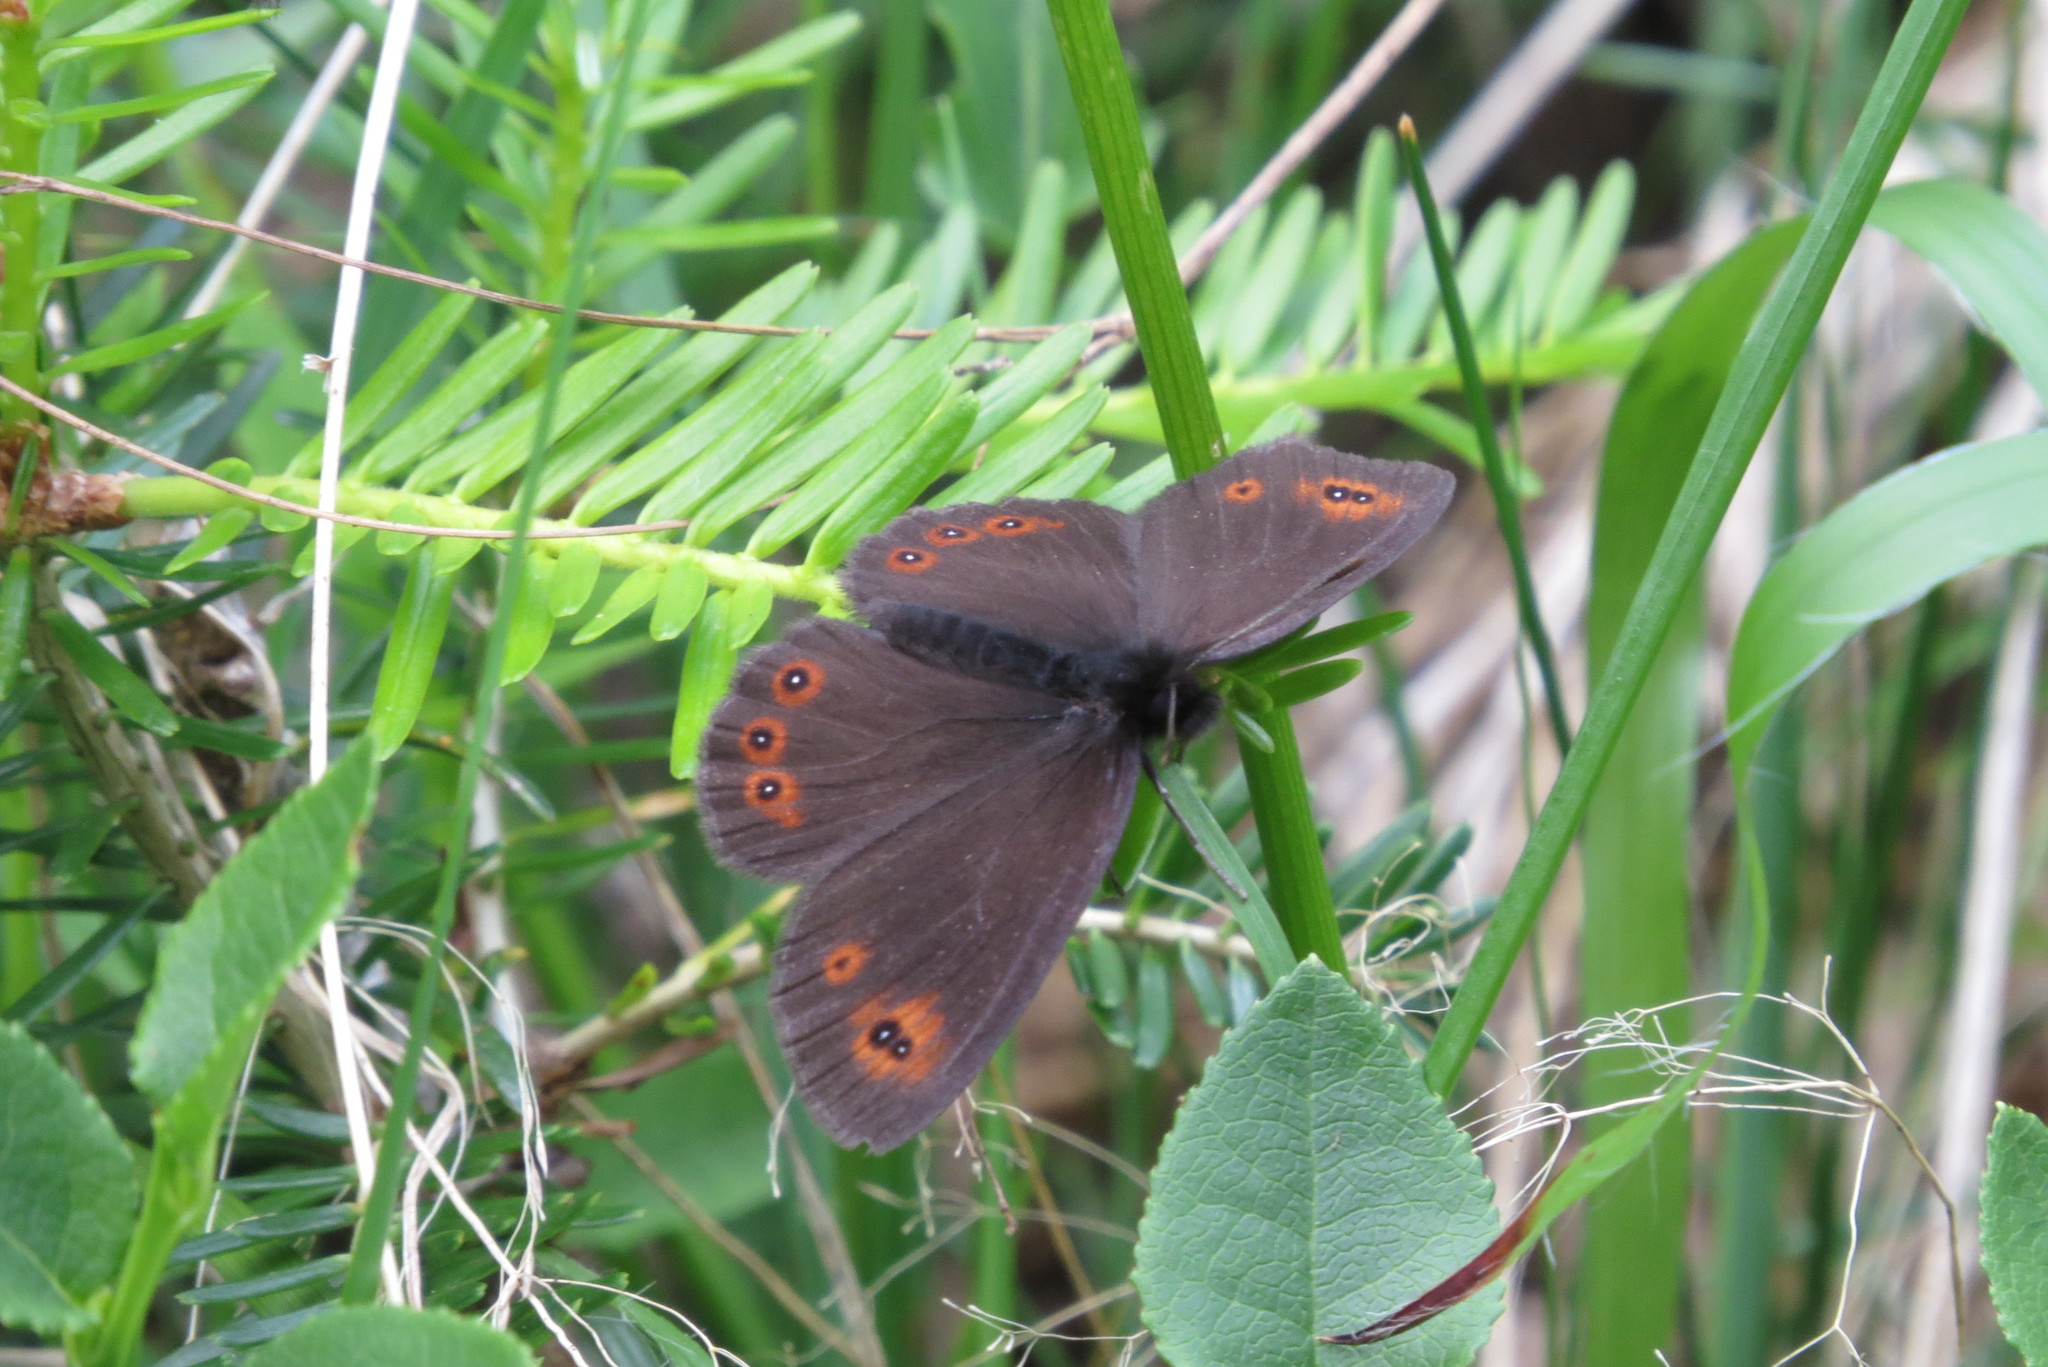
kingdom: Animalia
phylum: Arthropoda
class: Insecta
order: Lepidoptera
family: Nymphalidae
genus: Erebia
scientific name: Erebia medusa
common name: Woodland ringlet
